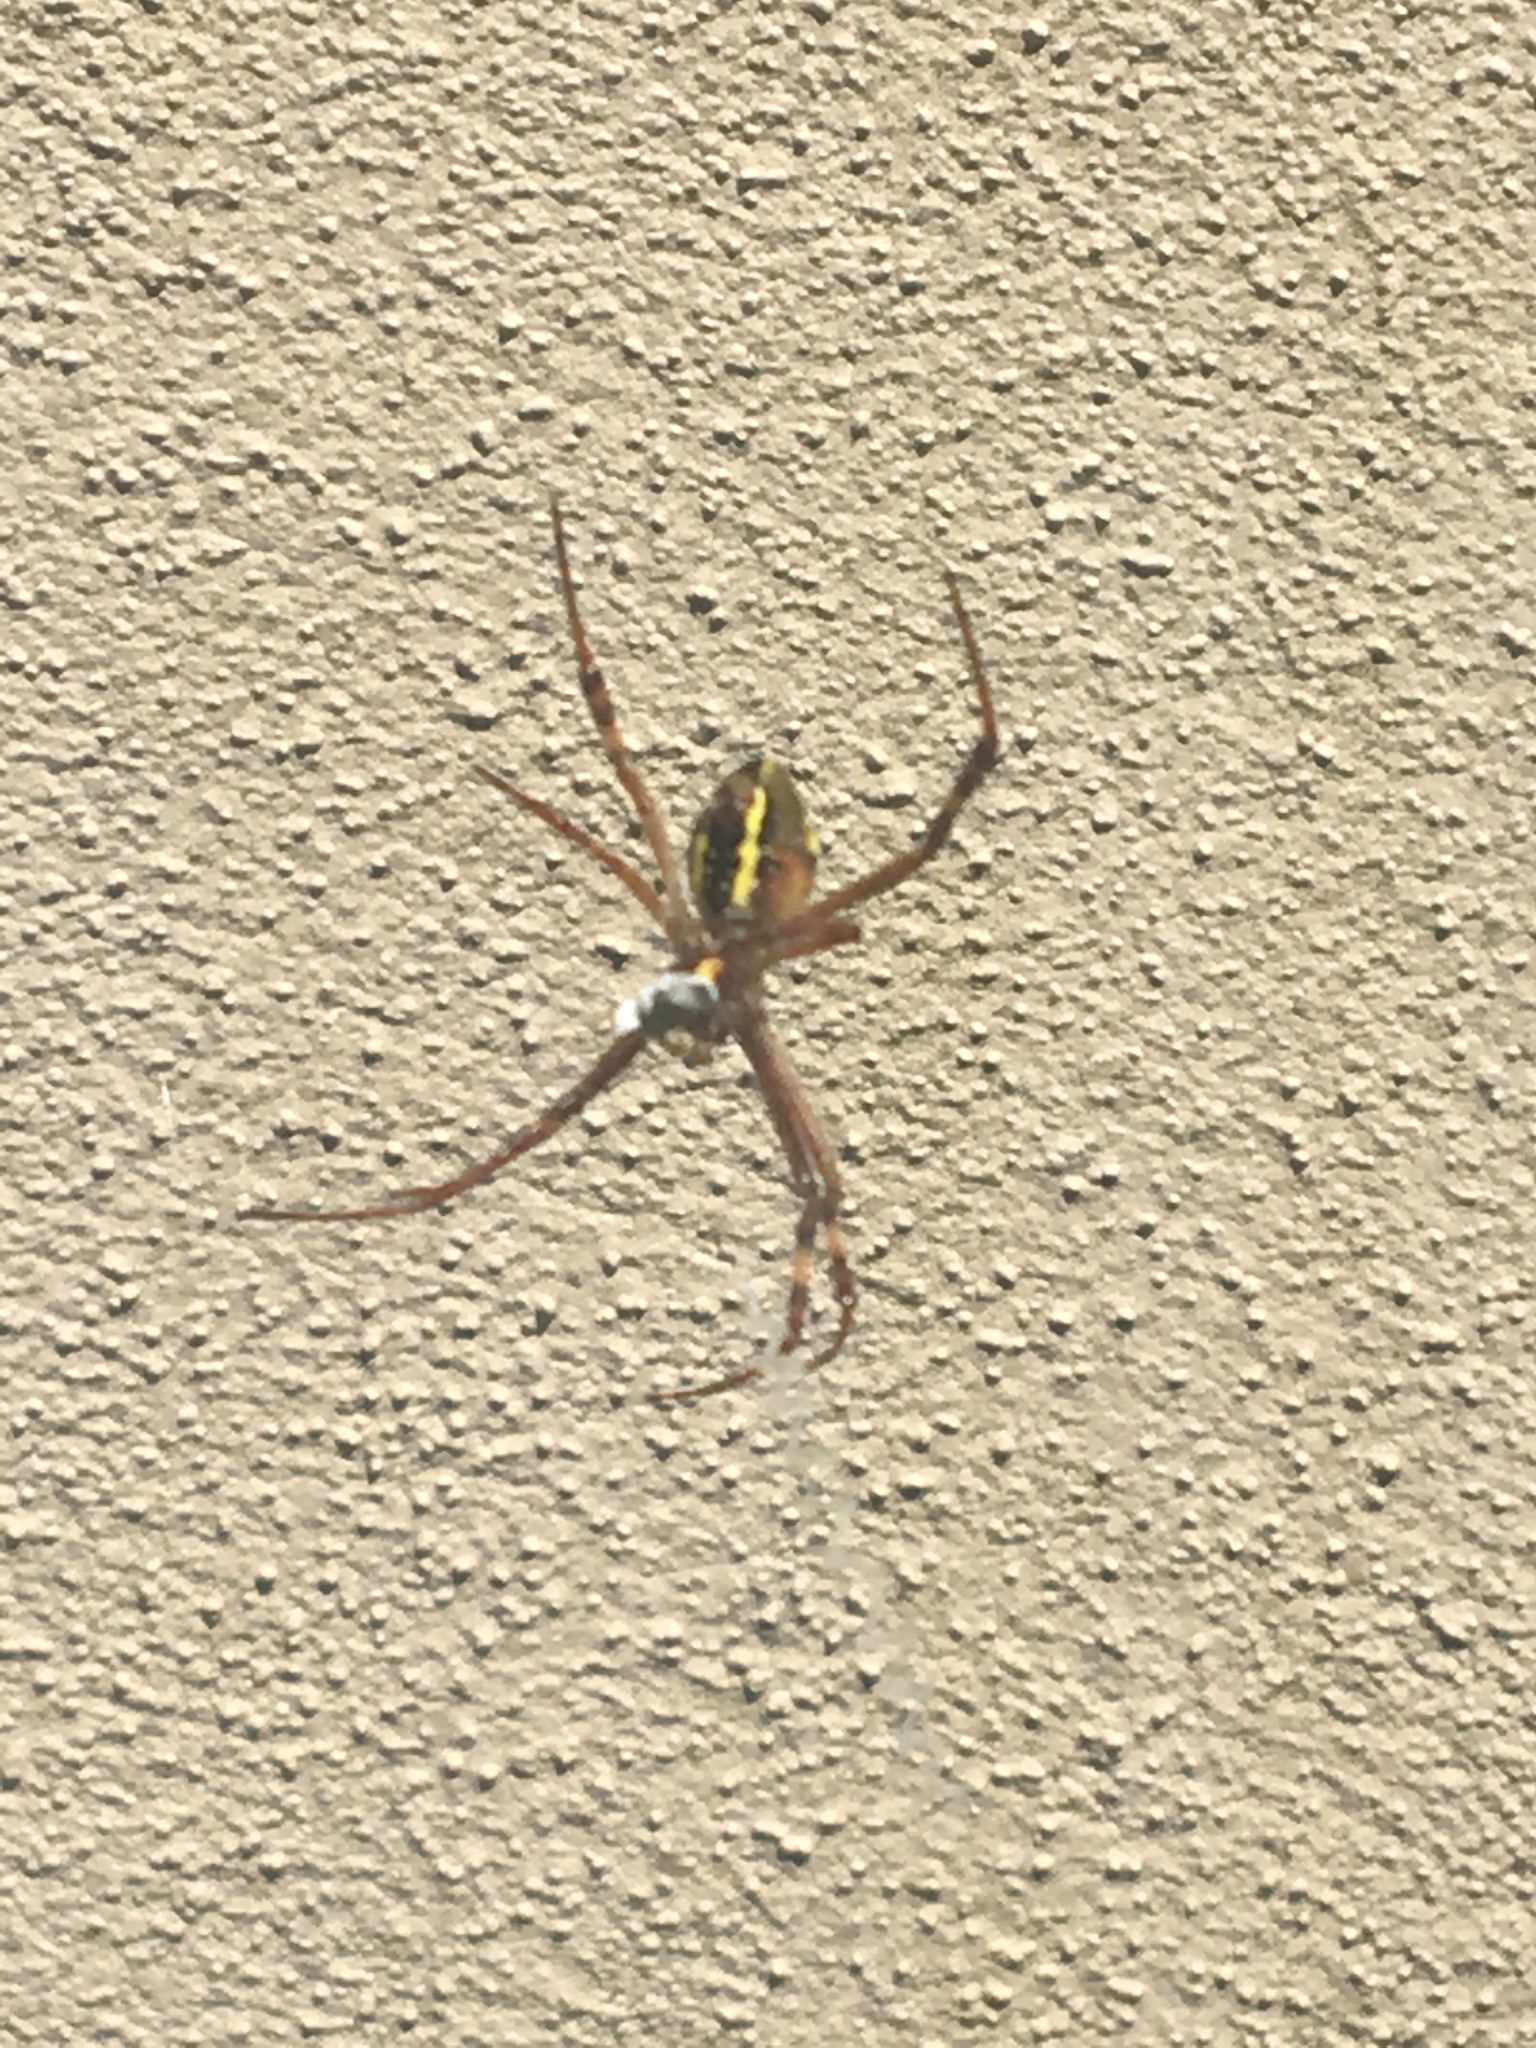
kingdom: Animalia
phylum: Arthropoda
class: Arachnida
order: Araneae
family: Araneidae
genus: Argiope
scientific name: Argiope keyserlingi
